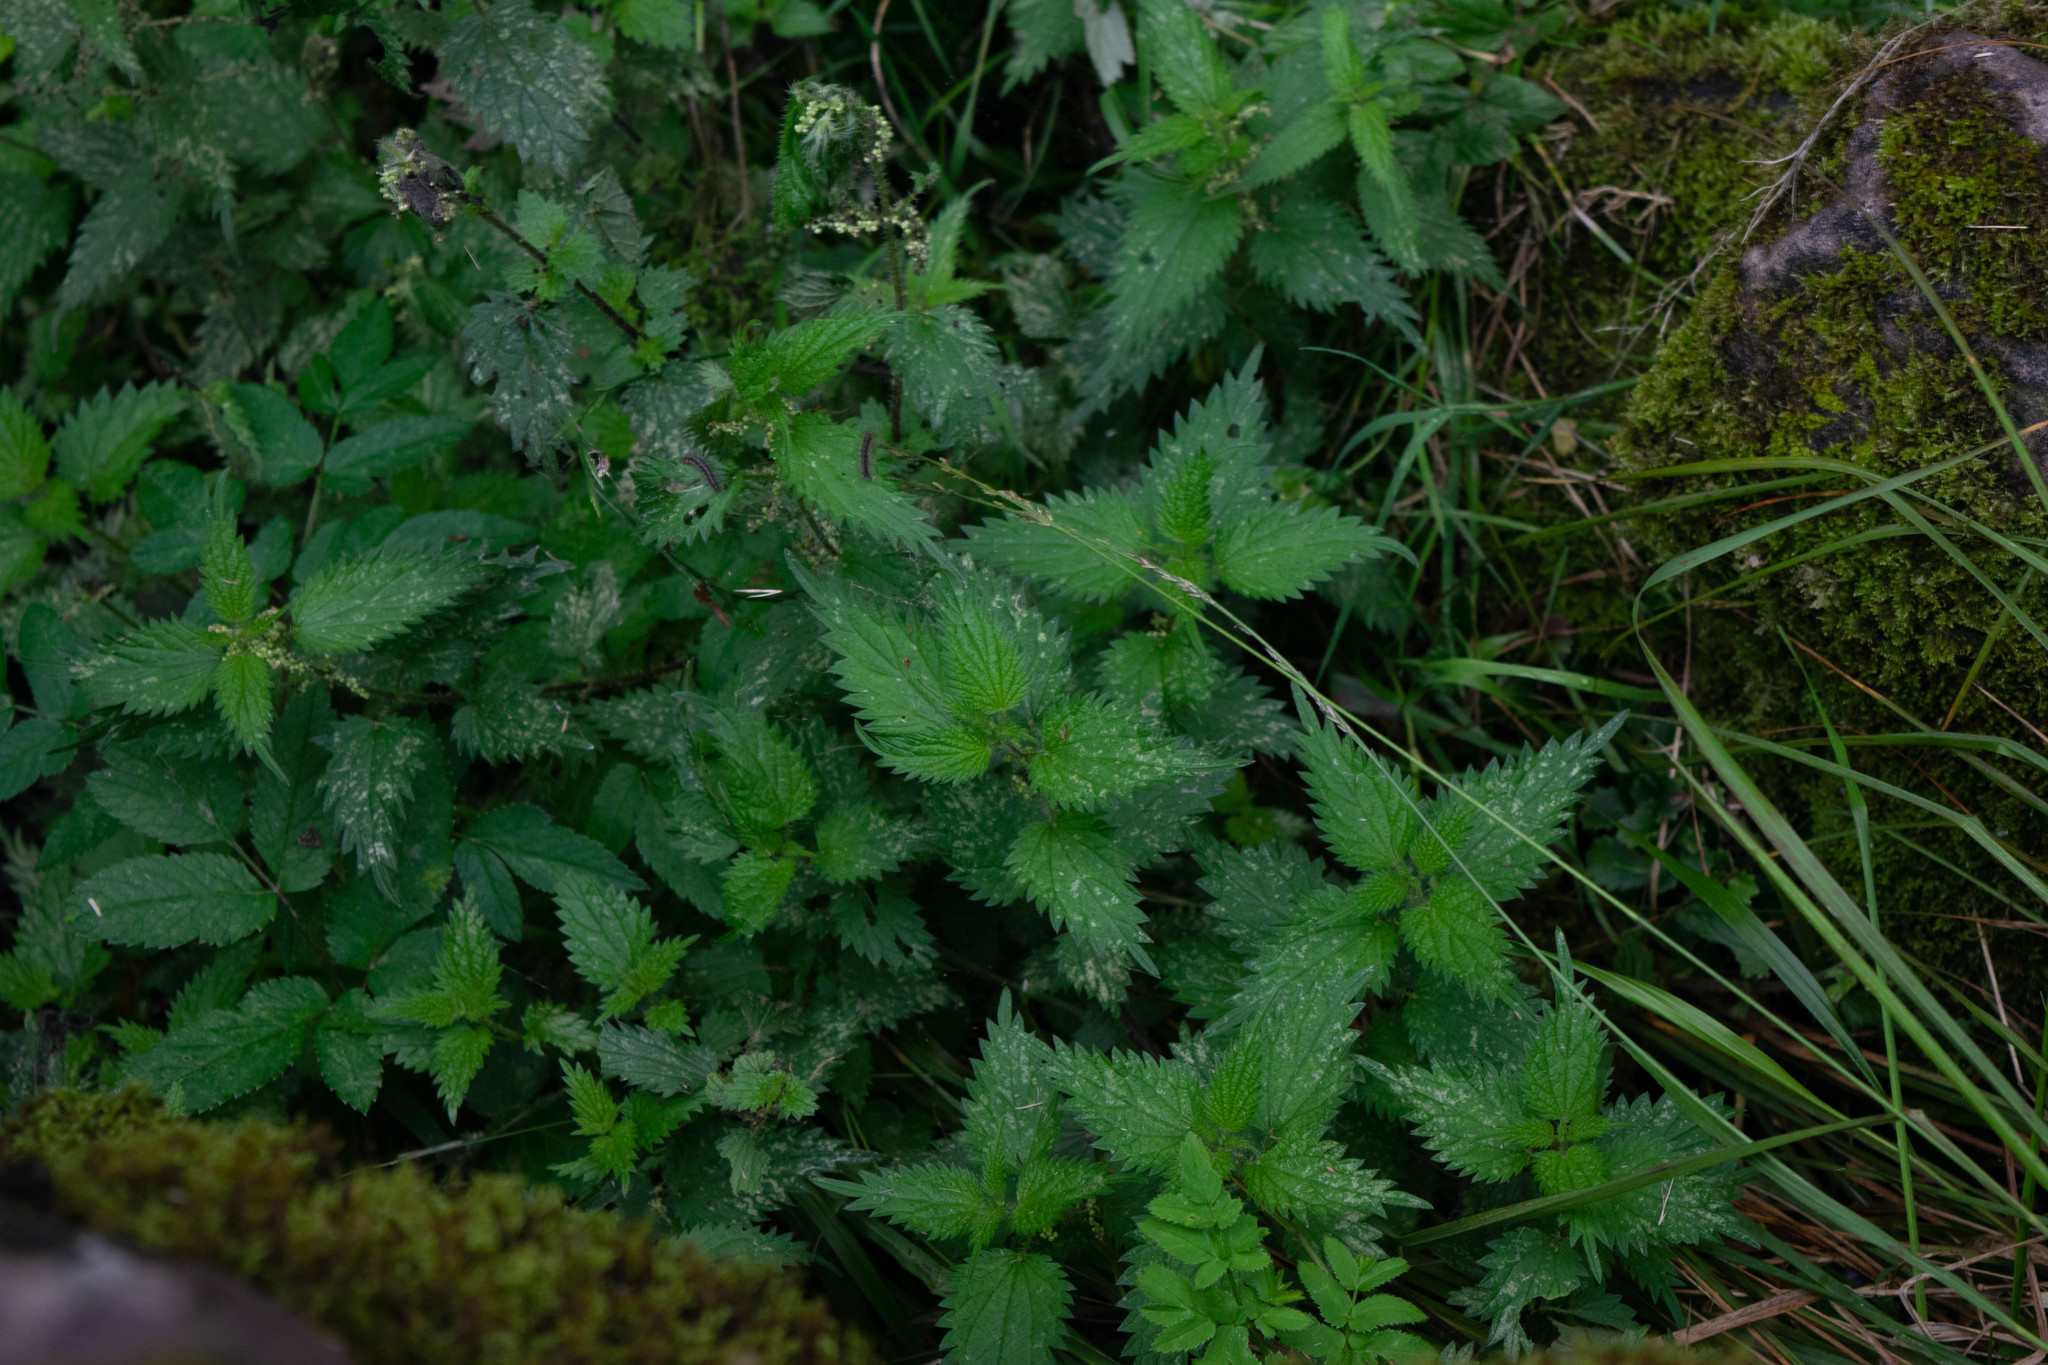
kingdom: Plantae
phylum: Tracheophyta
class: Magnoliopsida
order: Rosales
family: Urticaceae
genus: Urtica
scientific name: Urtica dioica
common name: Common nettle
